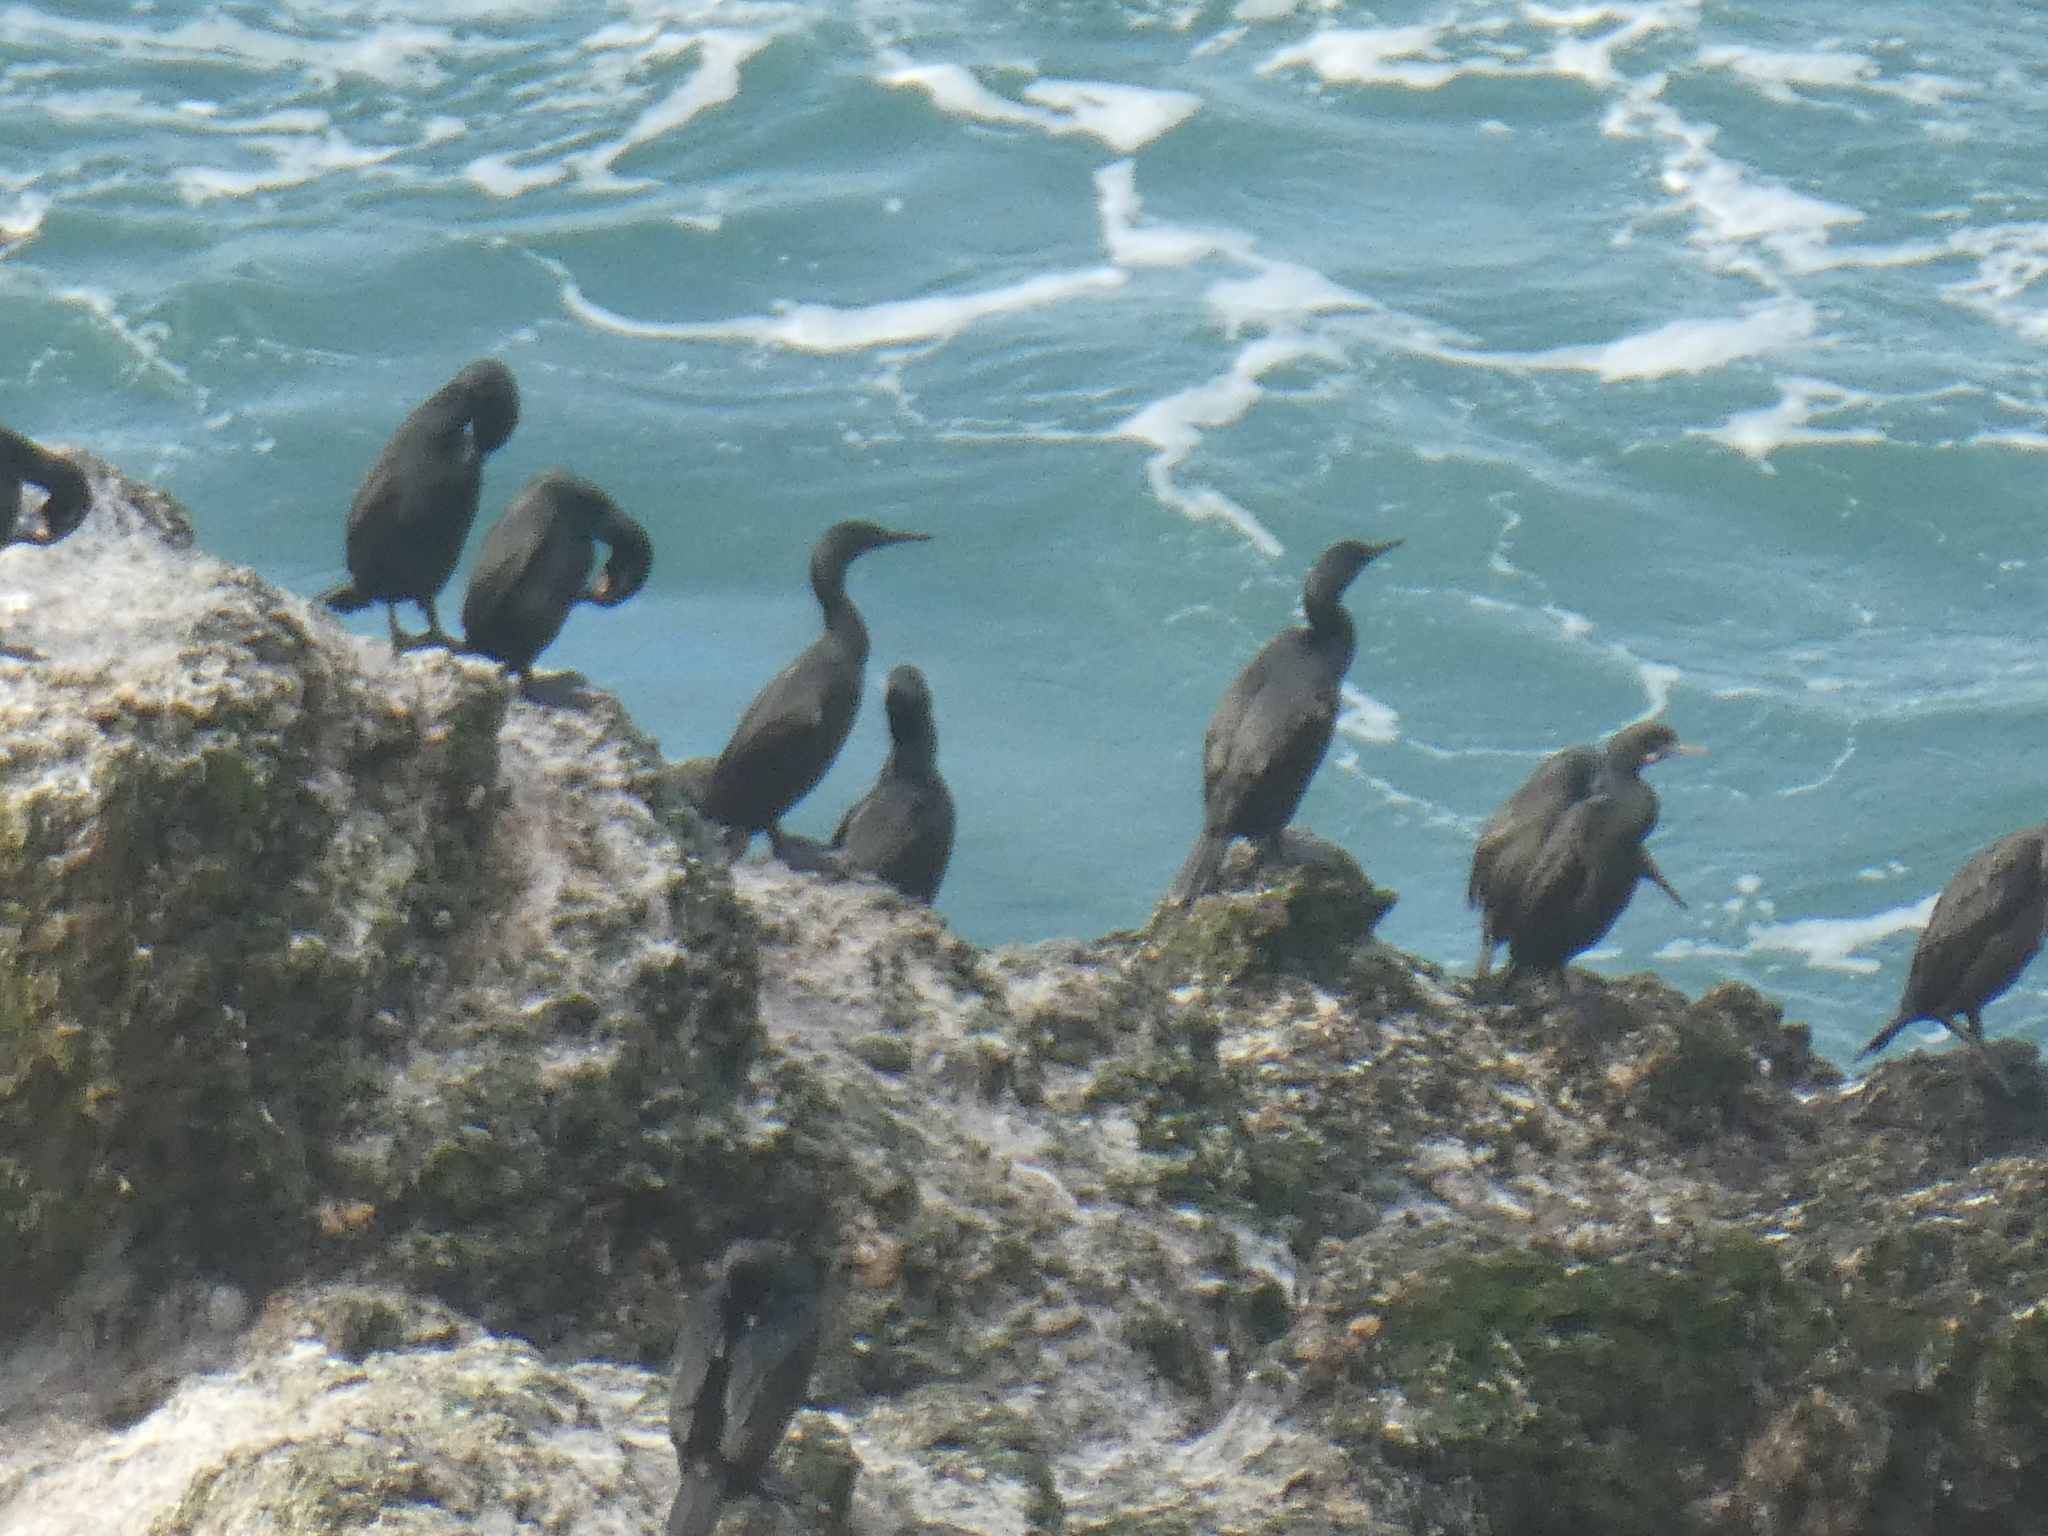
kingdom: Animalia
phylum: Chordata
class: Aves
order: Suliformes
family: Phalacrocoracidae
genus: Urile
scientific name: Urile penicillatus
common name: Brandt's cormorant
